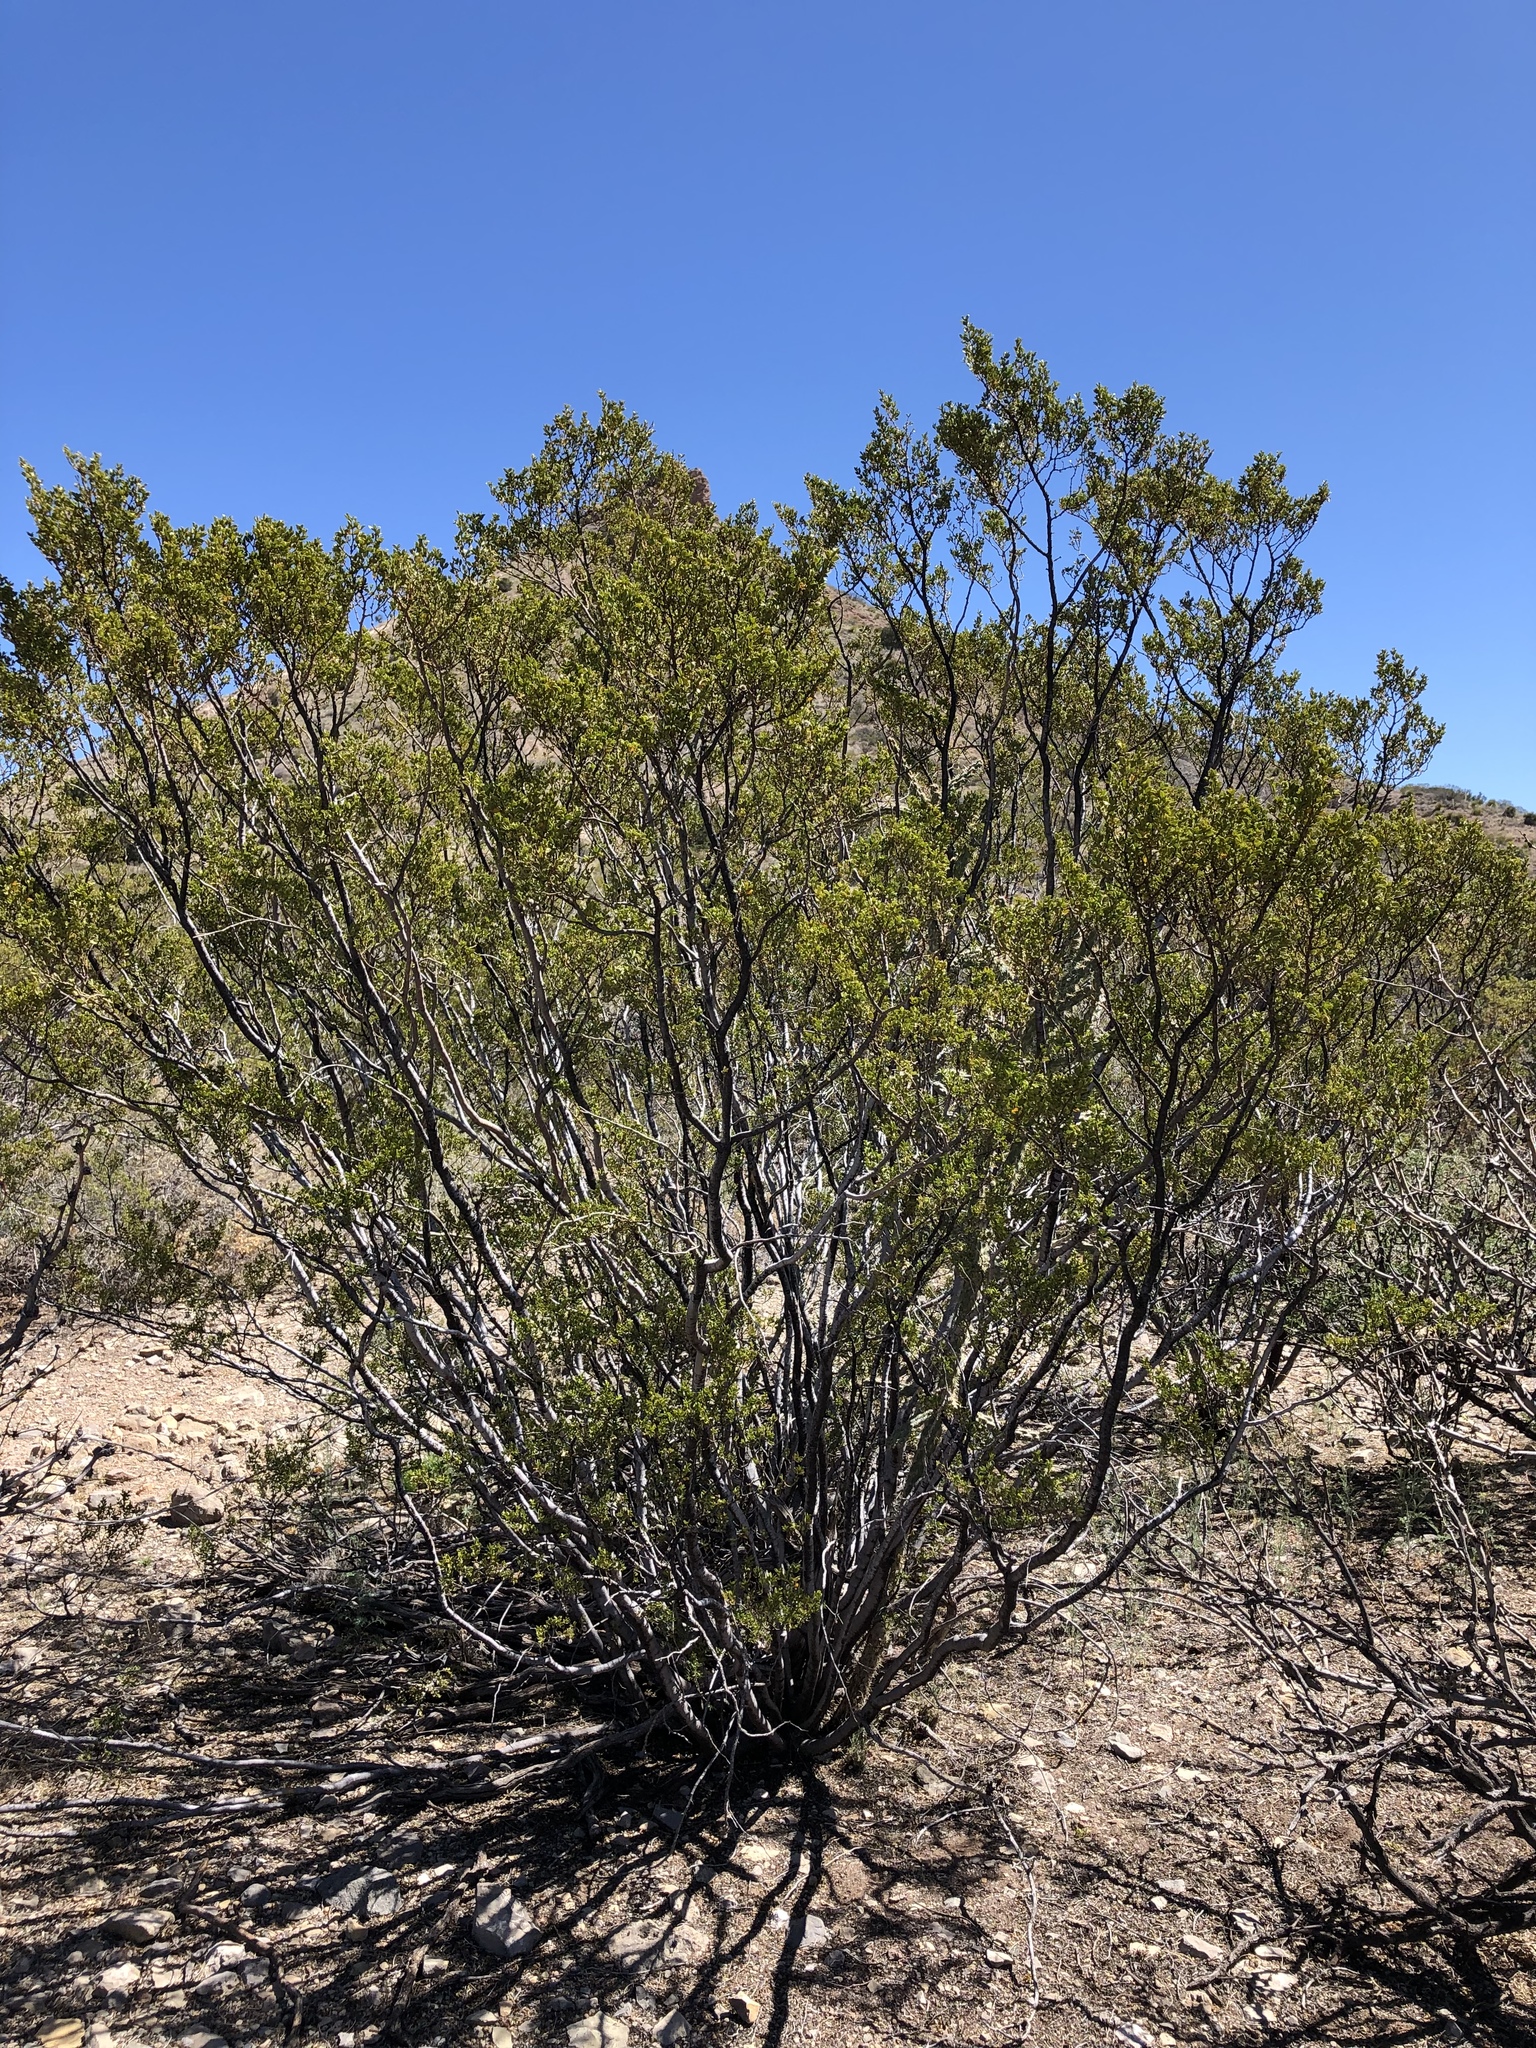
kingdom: Plantae
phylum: Tracheophyta
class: Magnoliopsida
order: Zygophyllales
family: Zygophyllaceae
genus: Larrea
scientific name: Larrea tridentata
